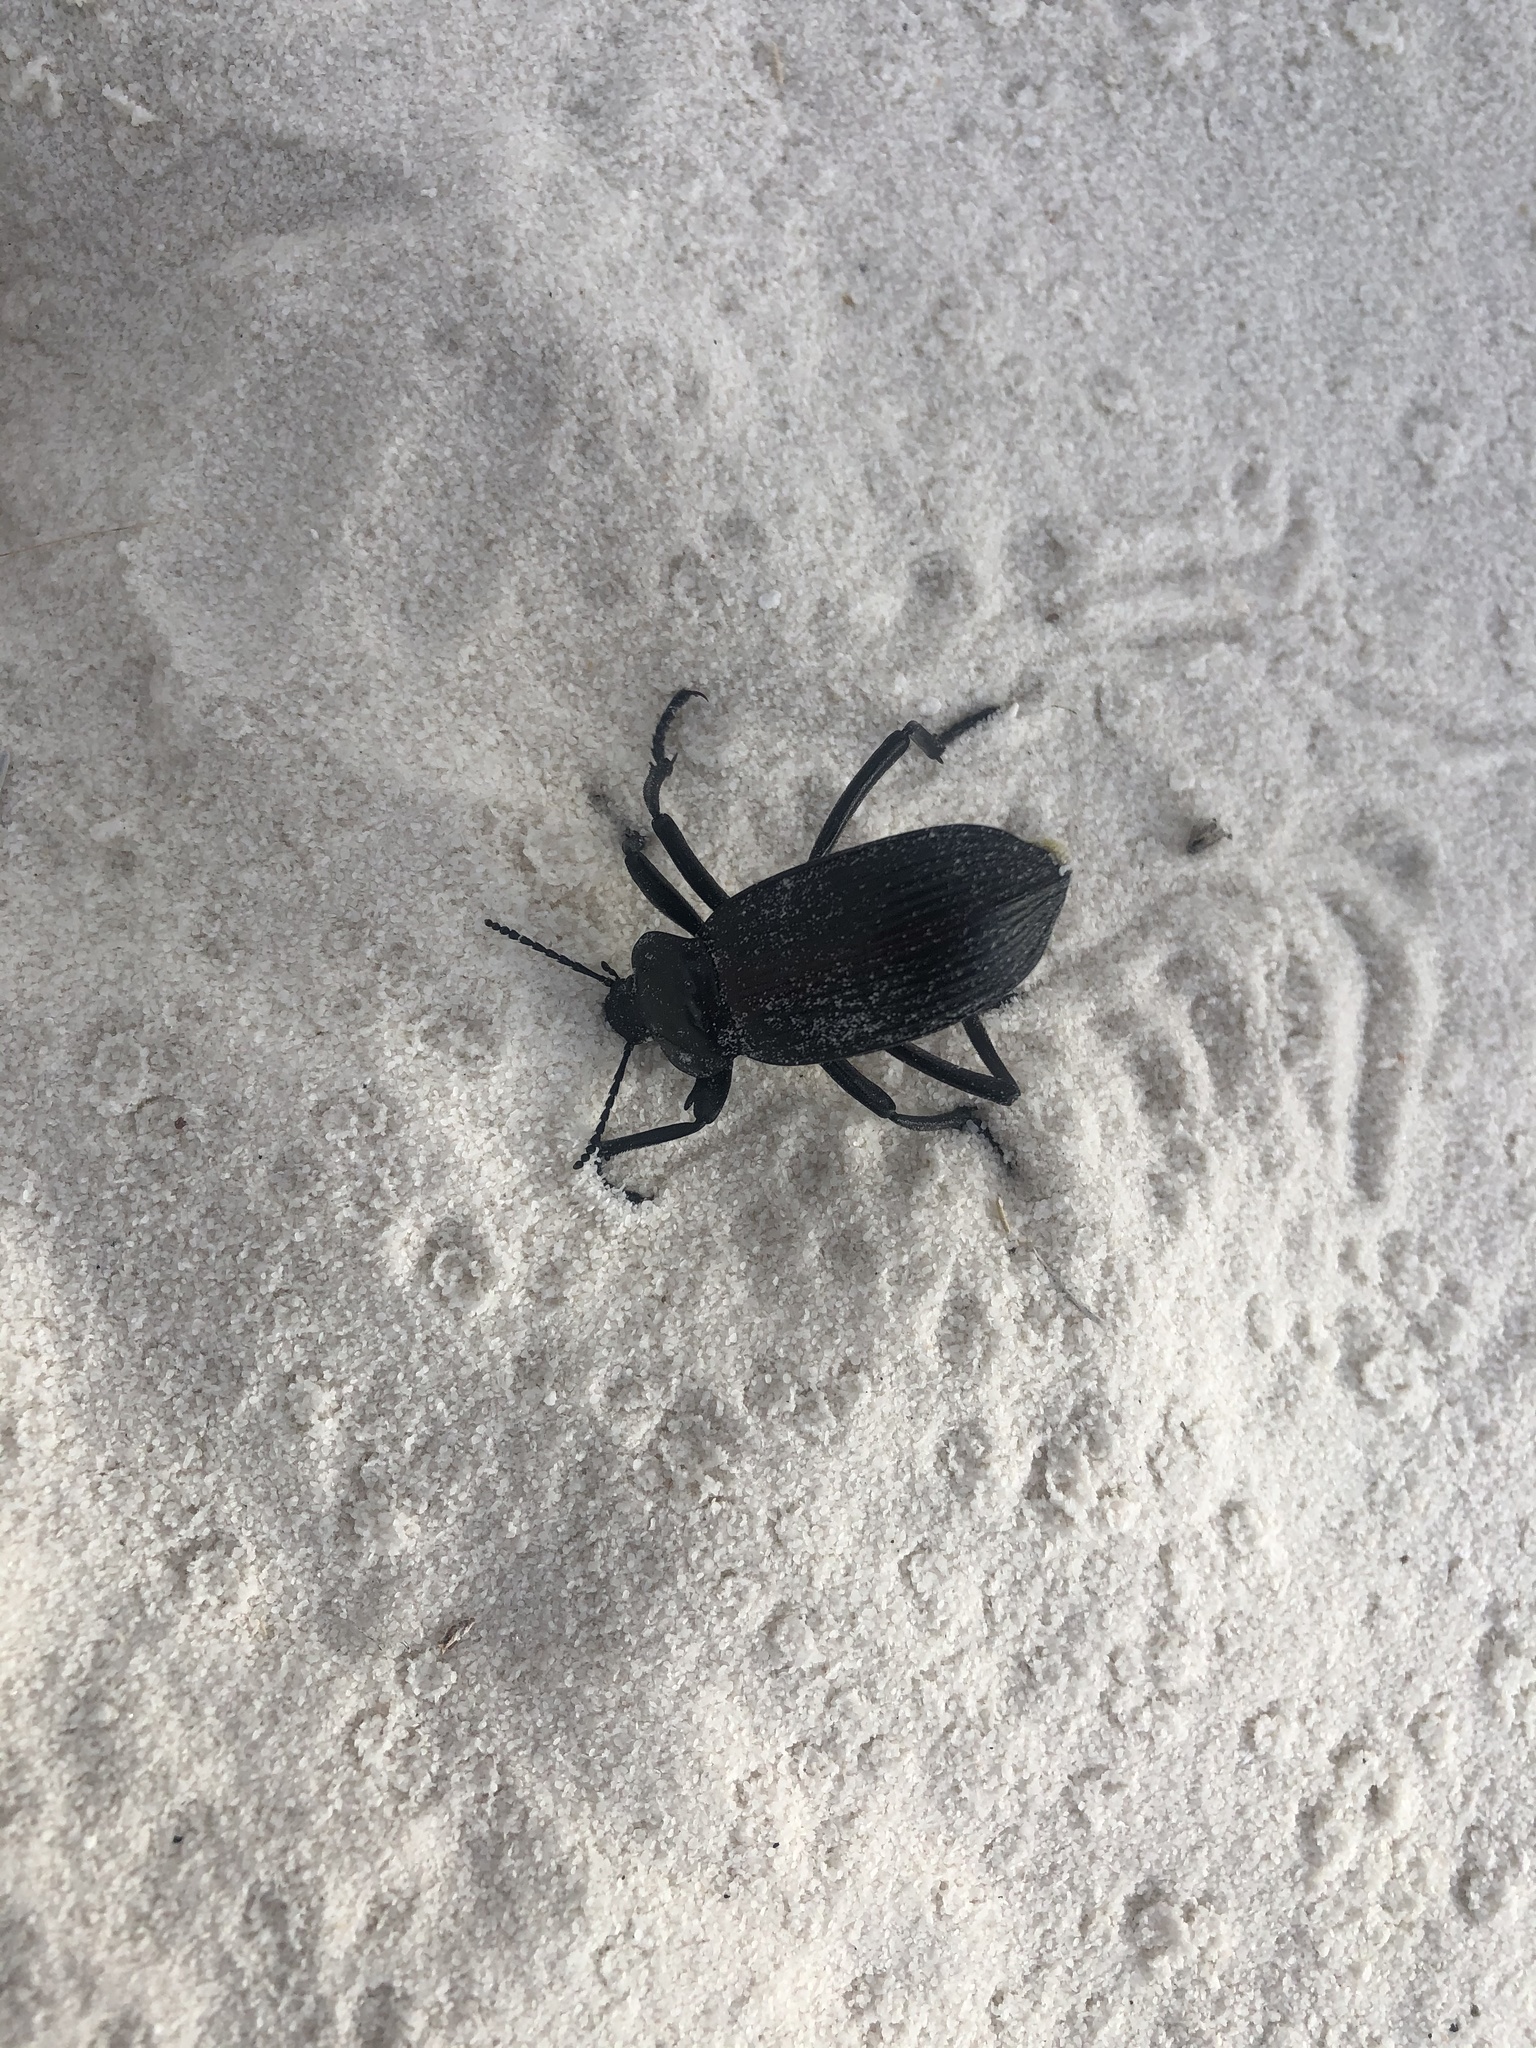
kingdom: Animalia
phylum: Arthropoda
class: Insecta
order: Coleoptera
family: Tenebrionidae
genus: Eleodes
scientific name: Eleodes acuta
